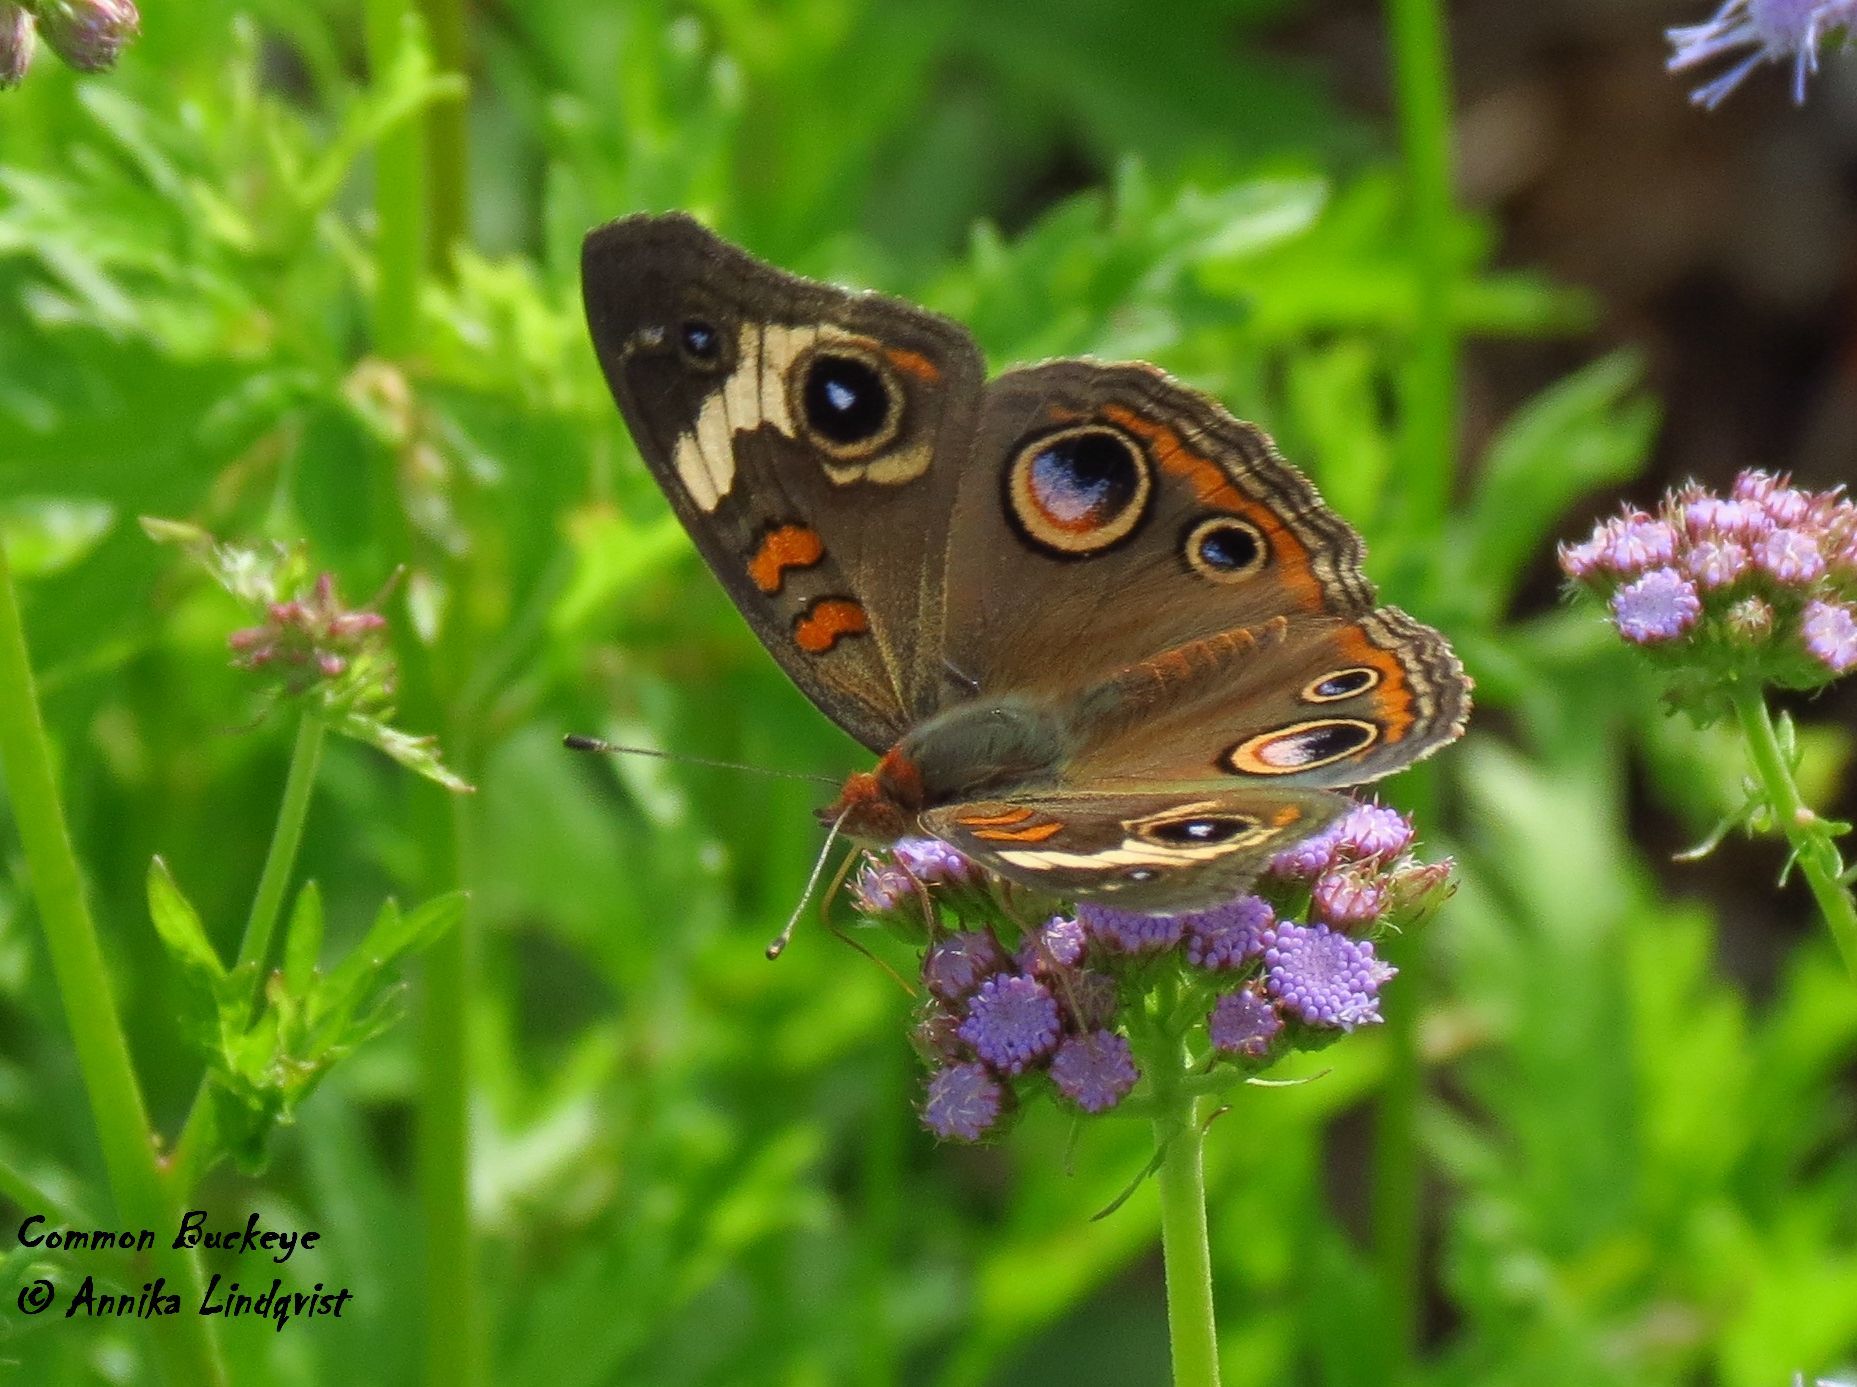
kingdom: Animalia
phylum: Arthropoda
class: Insecta
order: Lepidoptera
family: Nymphalidae
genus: Junonia
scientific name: Junonia coenia
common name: Common buckeye
